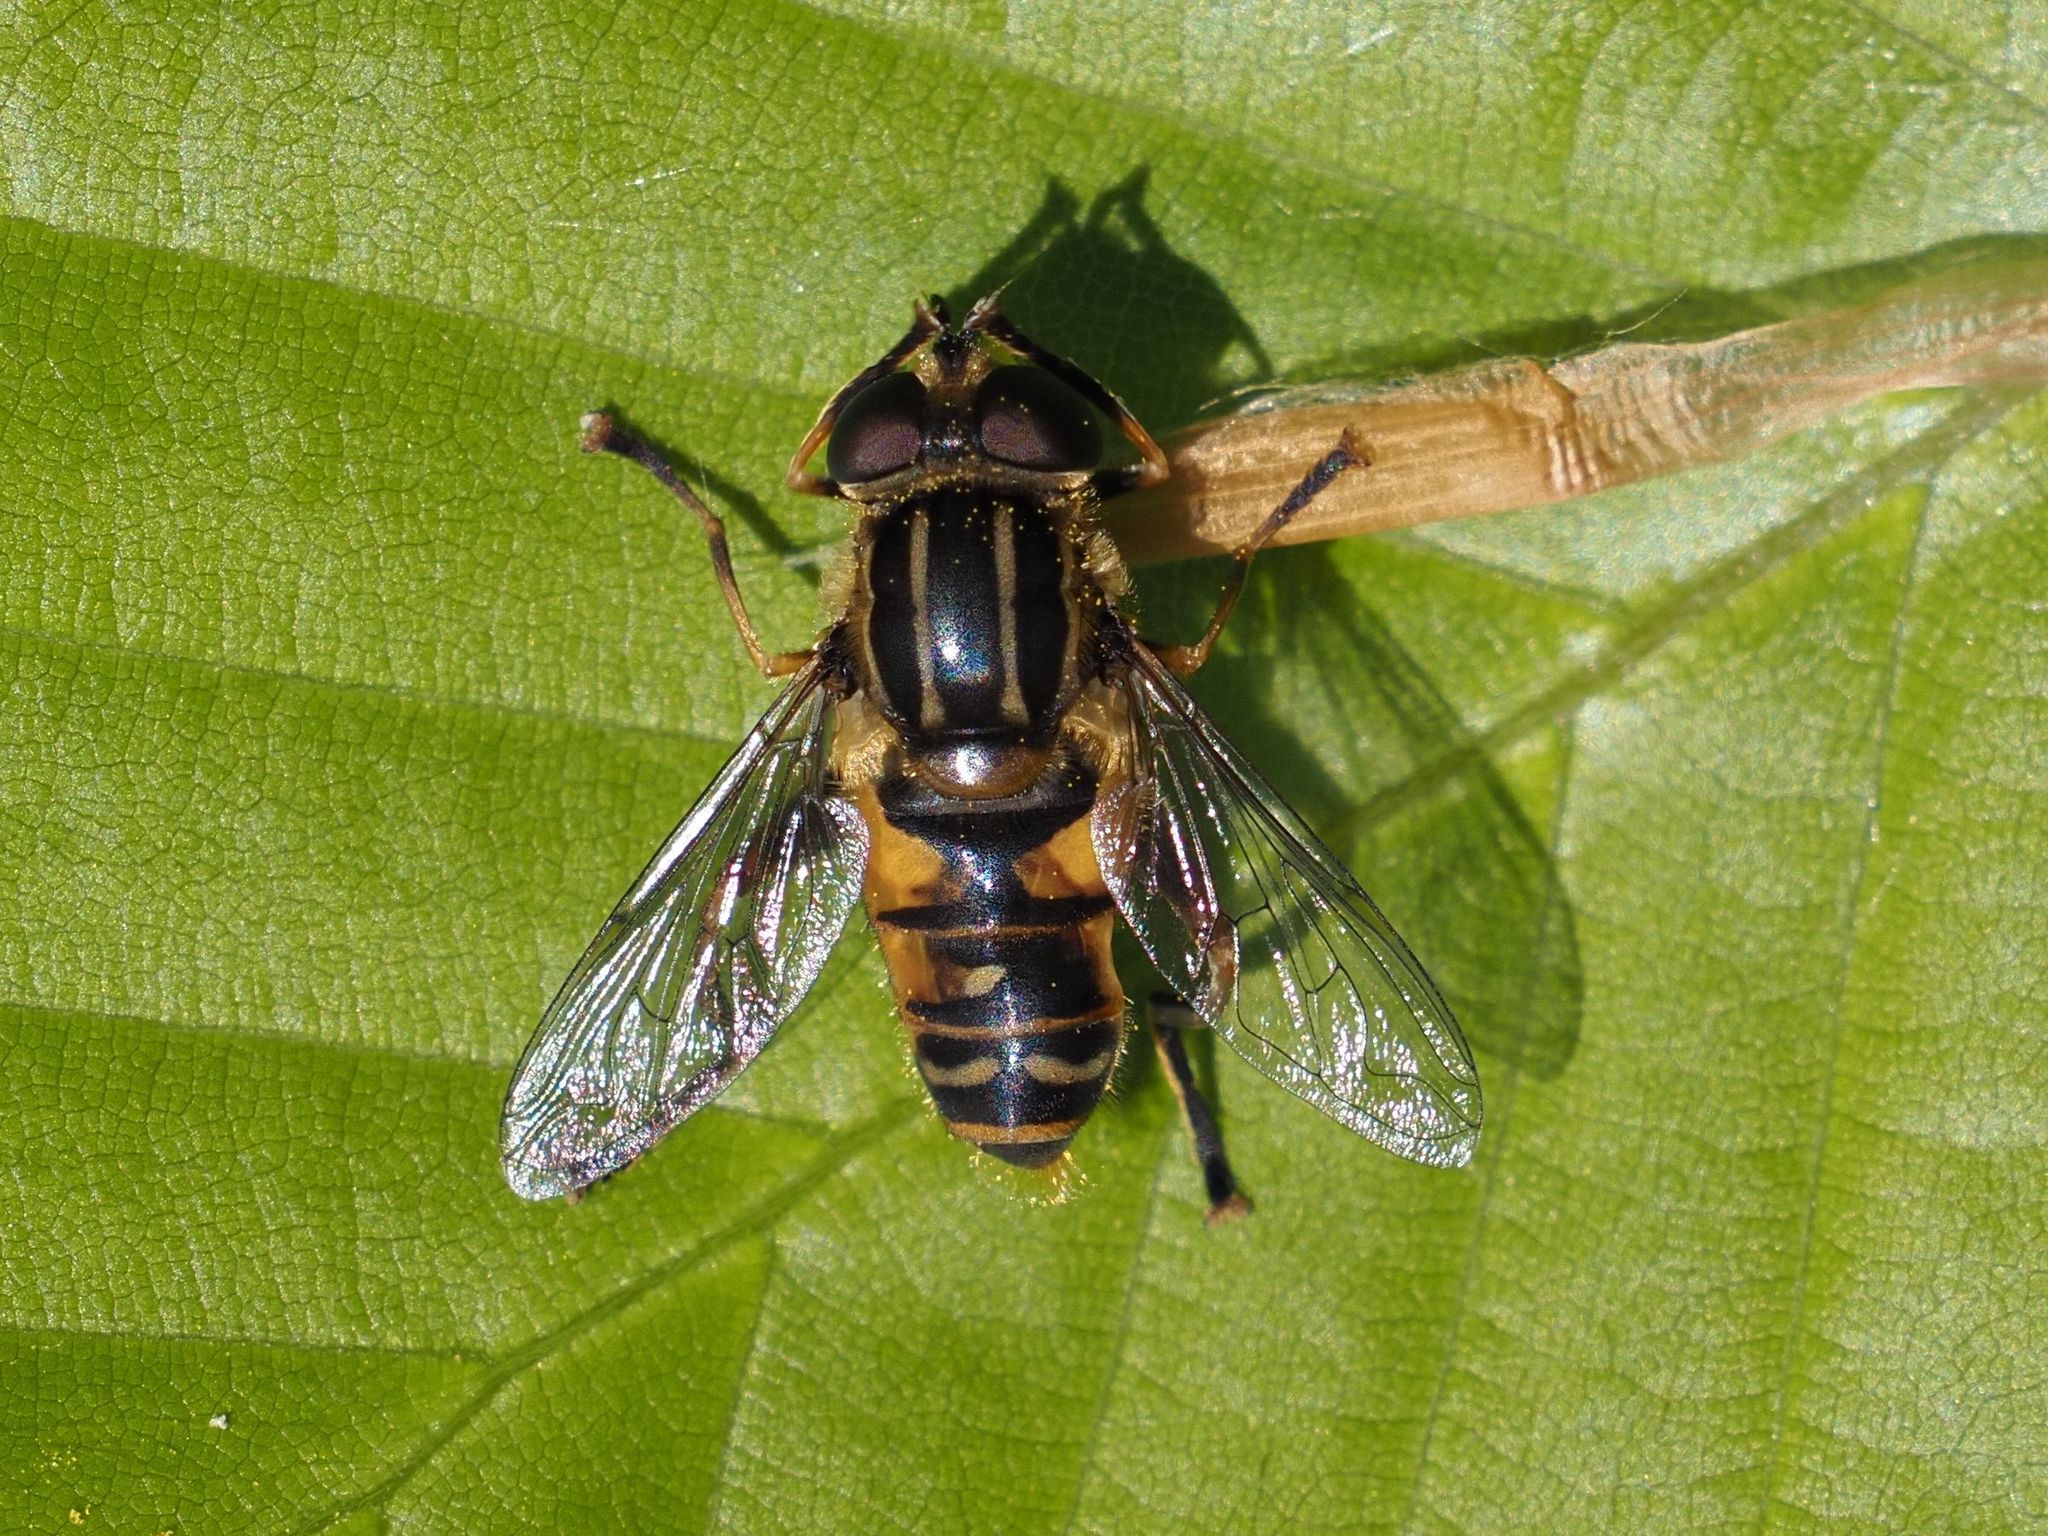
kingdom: Animalia
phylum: Arthropoda
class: Insecta
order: Diptera
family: Syrphidae
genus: Helophilus
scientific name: Helophilus pendulus
